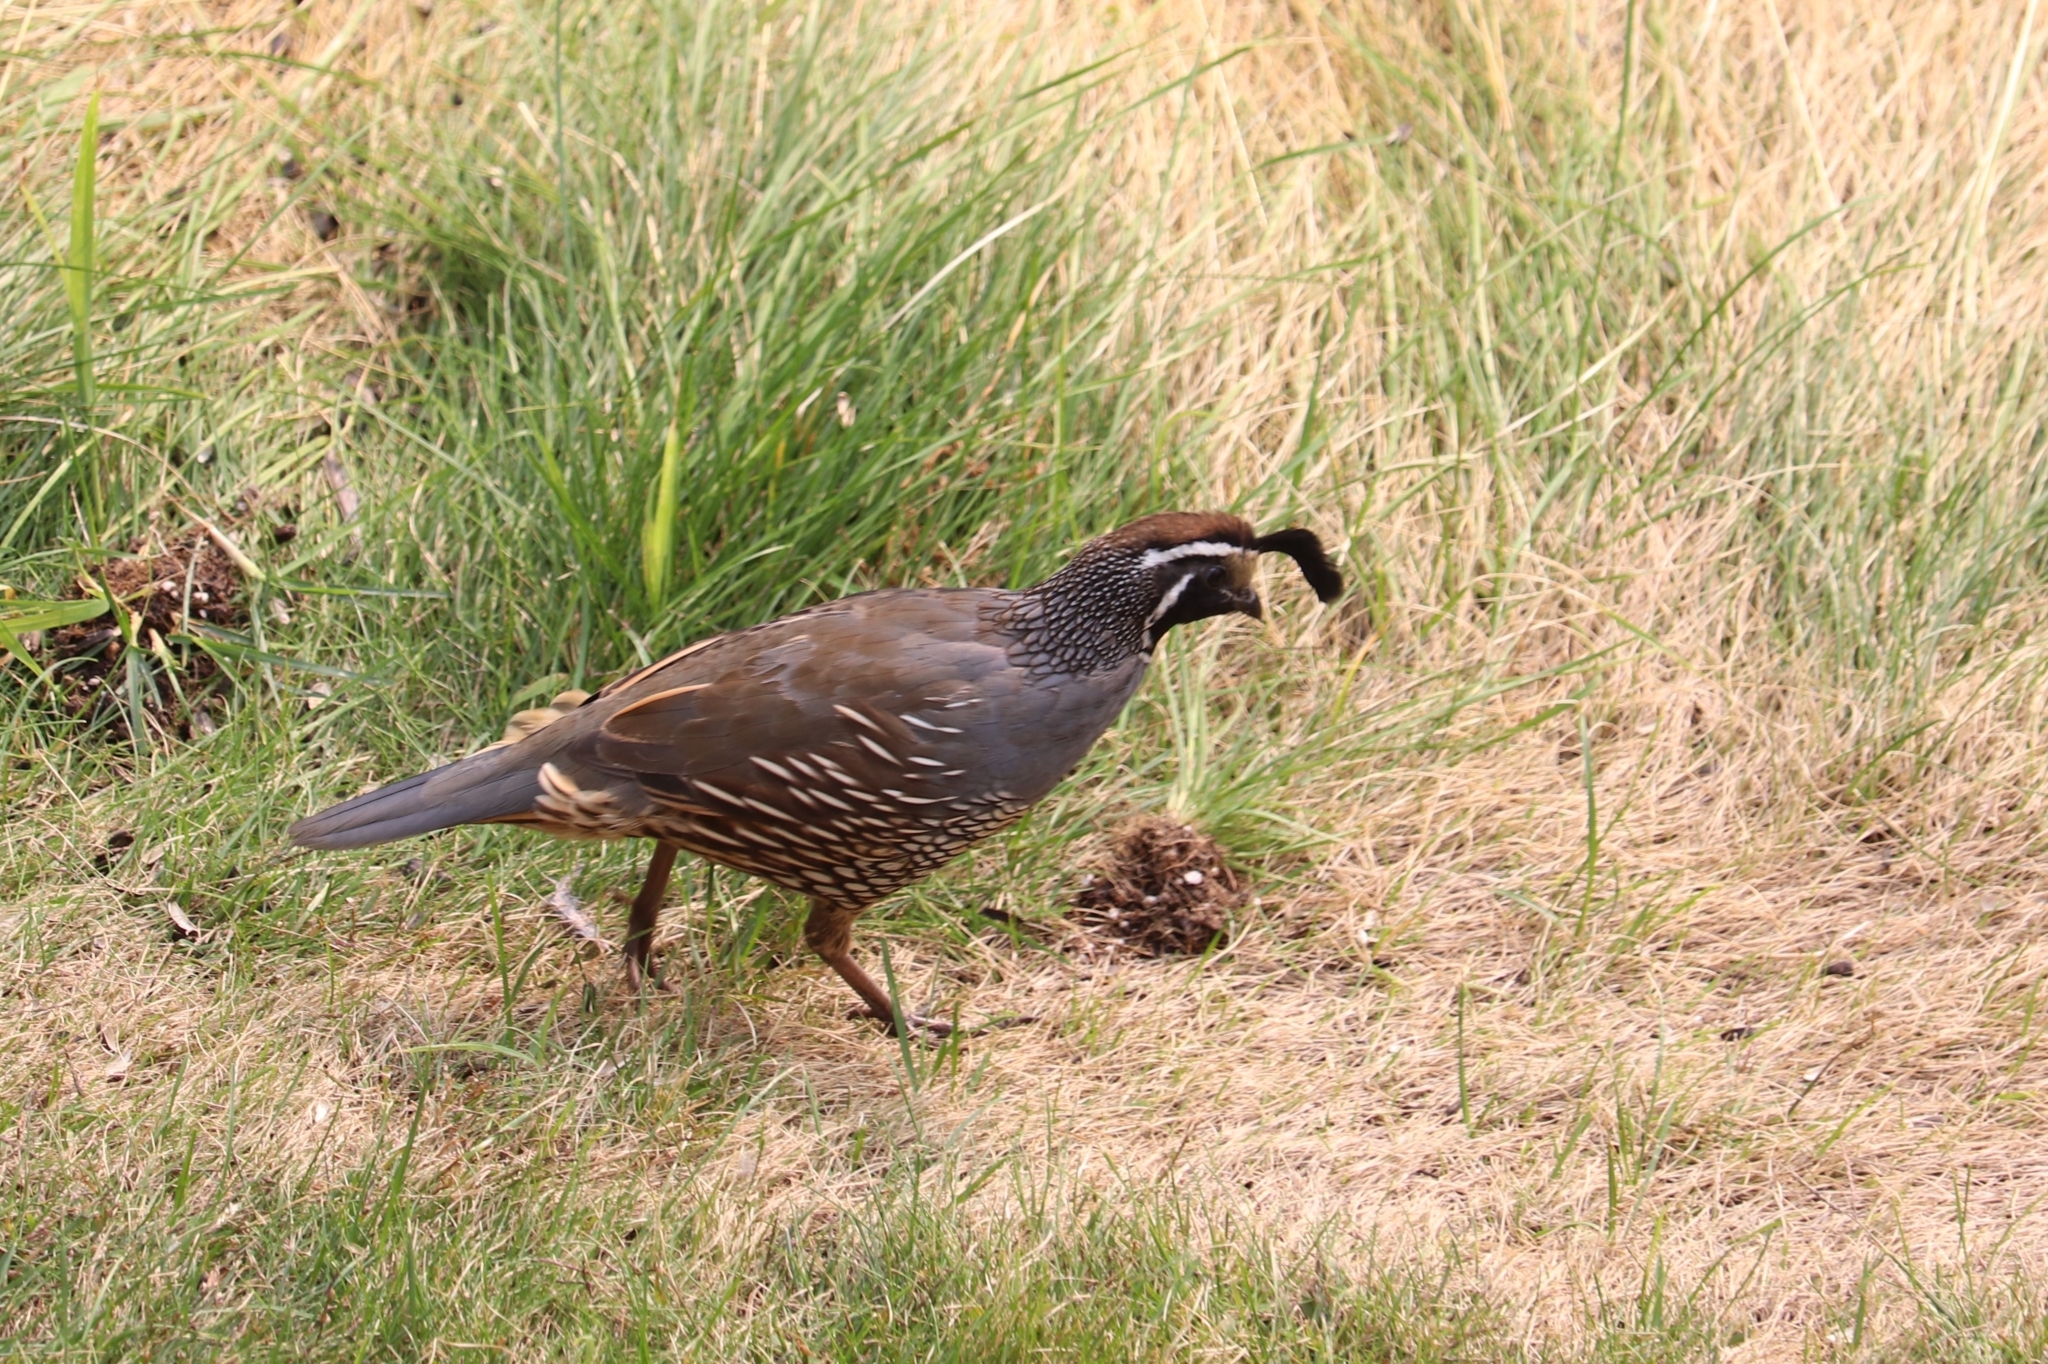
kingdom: Animalia
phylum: Chordata
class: Aves
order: Galliformes
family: Odontophoridae
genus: Callipepla
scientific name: Callipepla californica
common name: California quail
